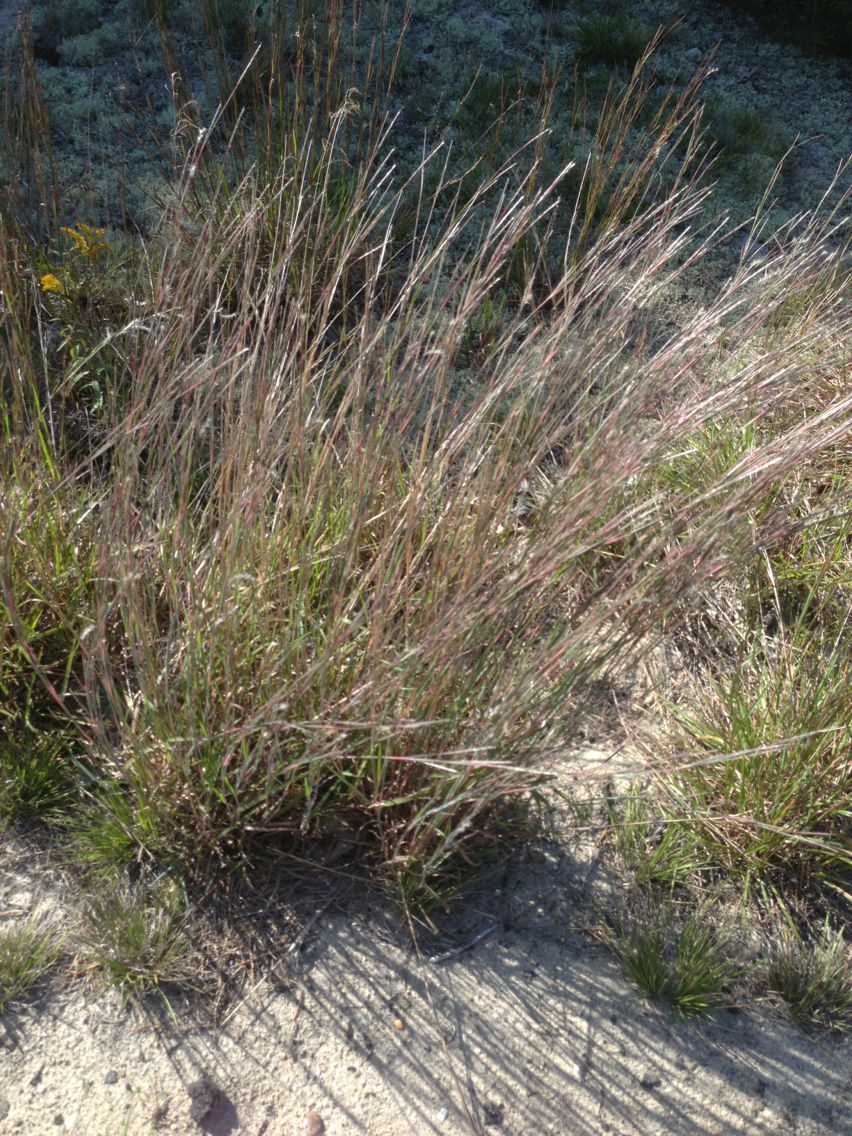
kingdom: Plantae
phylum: Tracheophyta
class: Liliopsida
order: Poales
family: Poaceae
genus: Schizachyrium
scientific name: Schizachyrium scoparium
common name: Little bluestem
